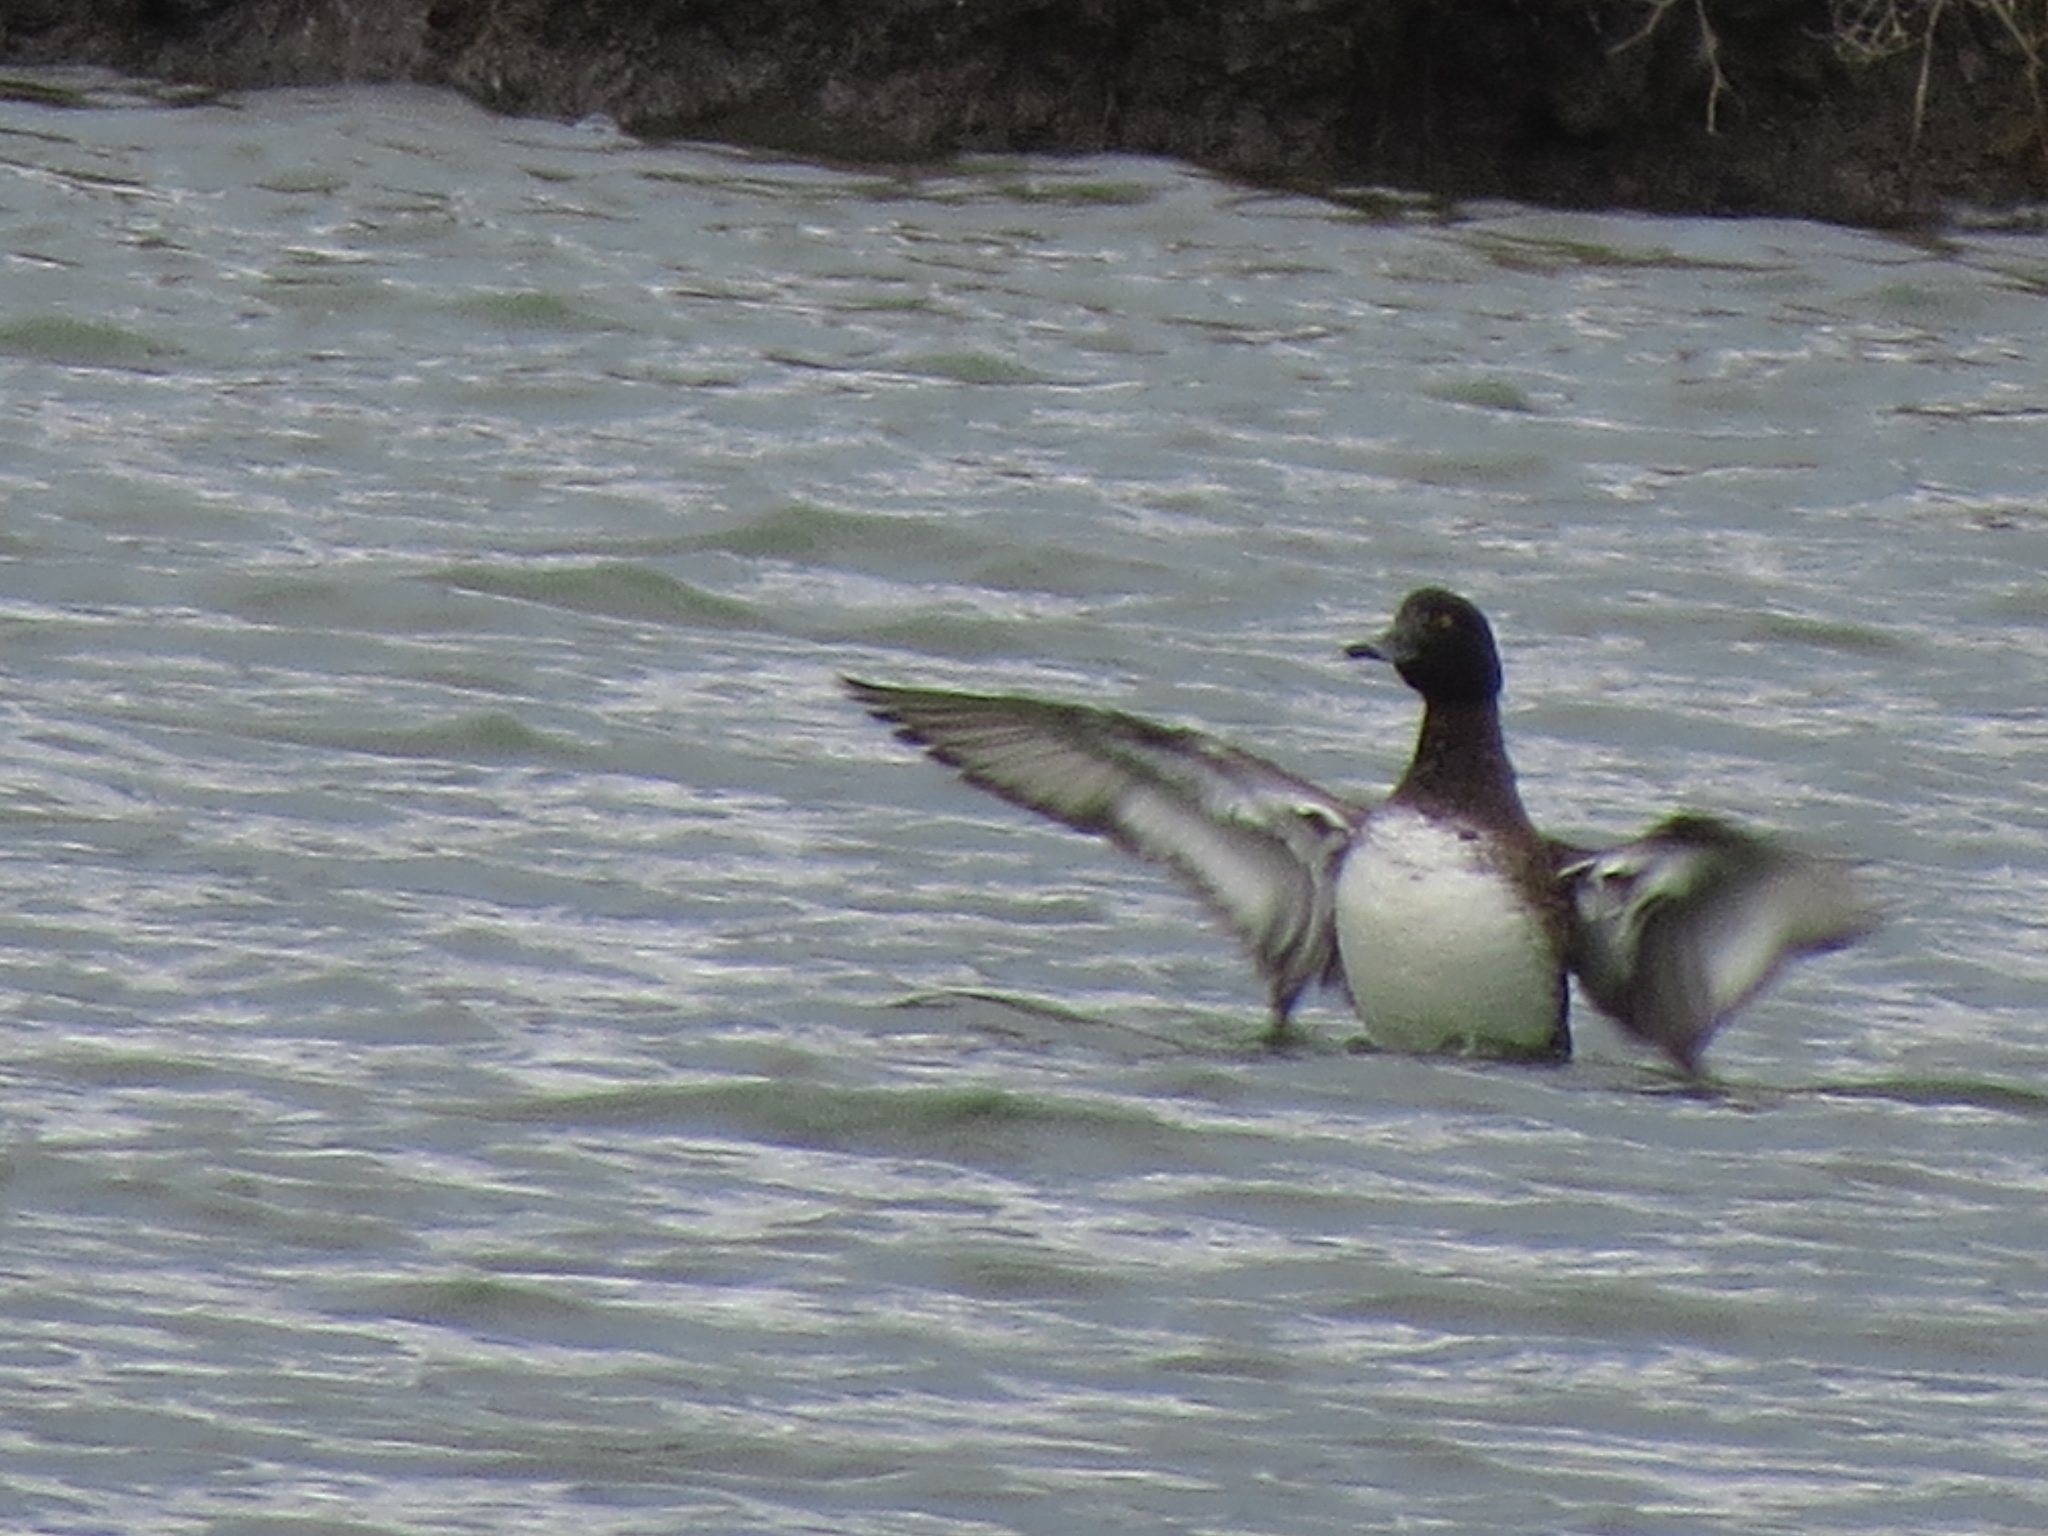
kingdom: Animalia
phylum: Chordata
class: Aves
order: Anseriformes
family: Anatidae
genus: Aythya
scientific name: Aythya fuligula
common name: Tufted duck
